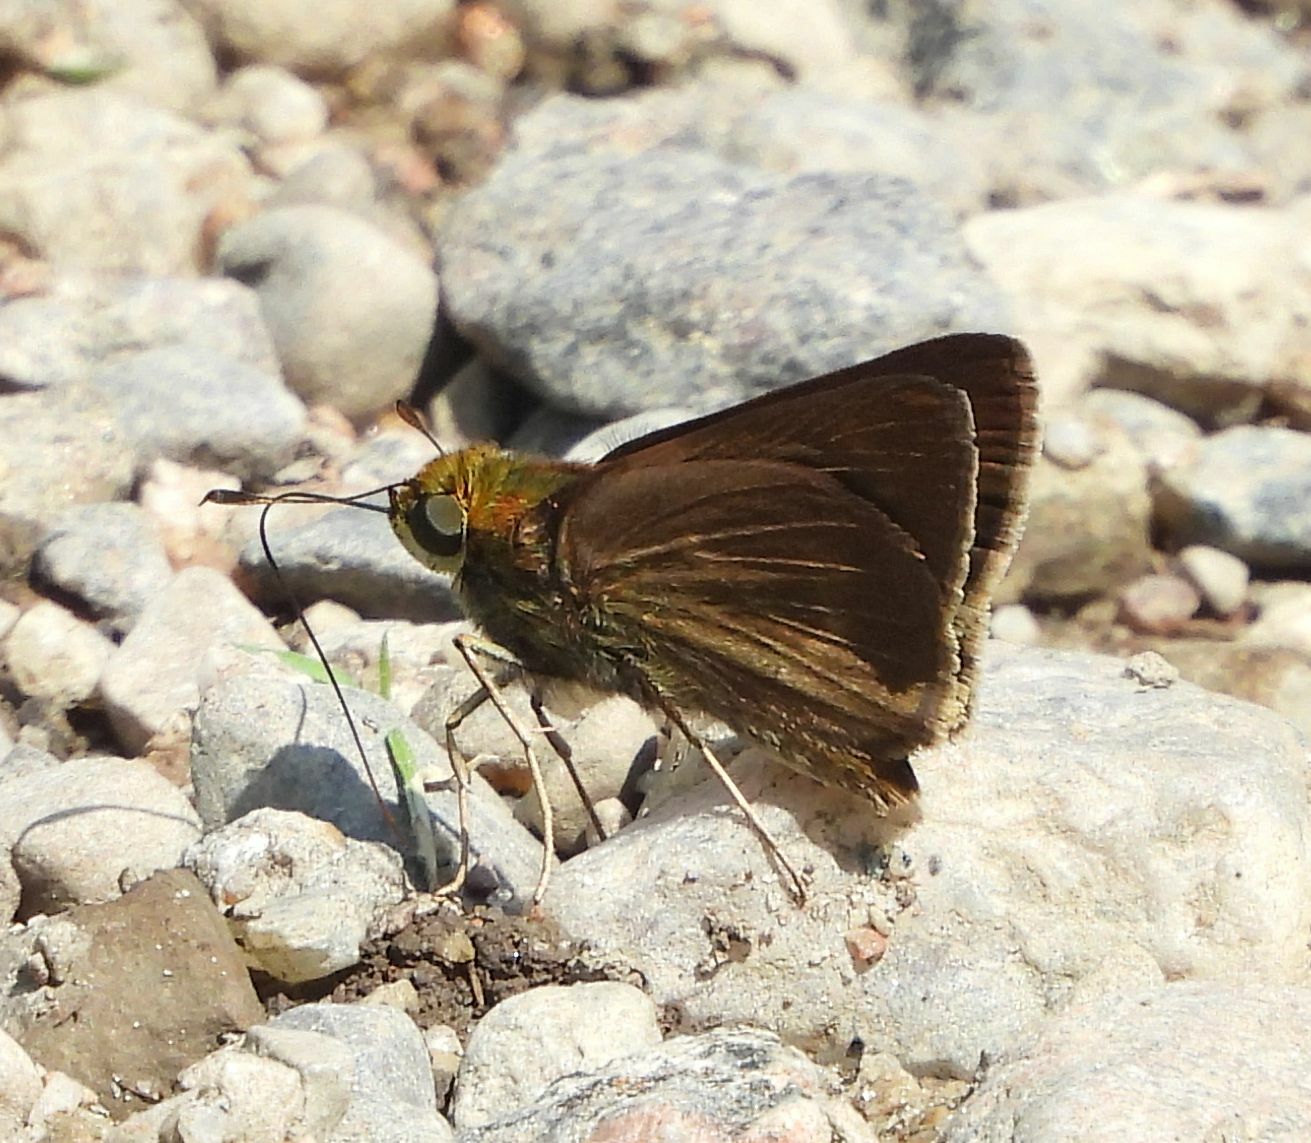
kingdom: Animalia
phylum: Arthropoda
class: Insecta
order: Lepidoptera
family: Hesperiidae
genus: Euphyes
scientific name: Euphyes vestris
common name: Dun skipper
